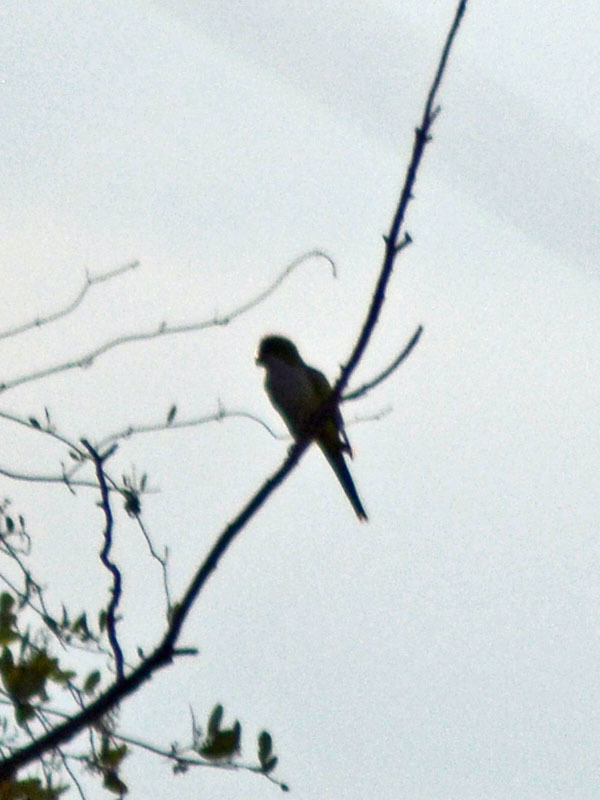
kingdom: Animalia
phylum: Chordata
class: Aves
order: Psittaciformes
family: Psittacidae
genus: Myiopsitta
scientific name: Myiopsitta monachus
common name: Monk parakeet
